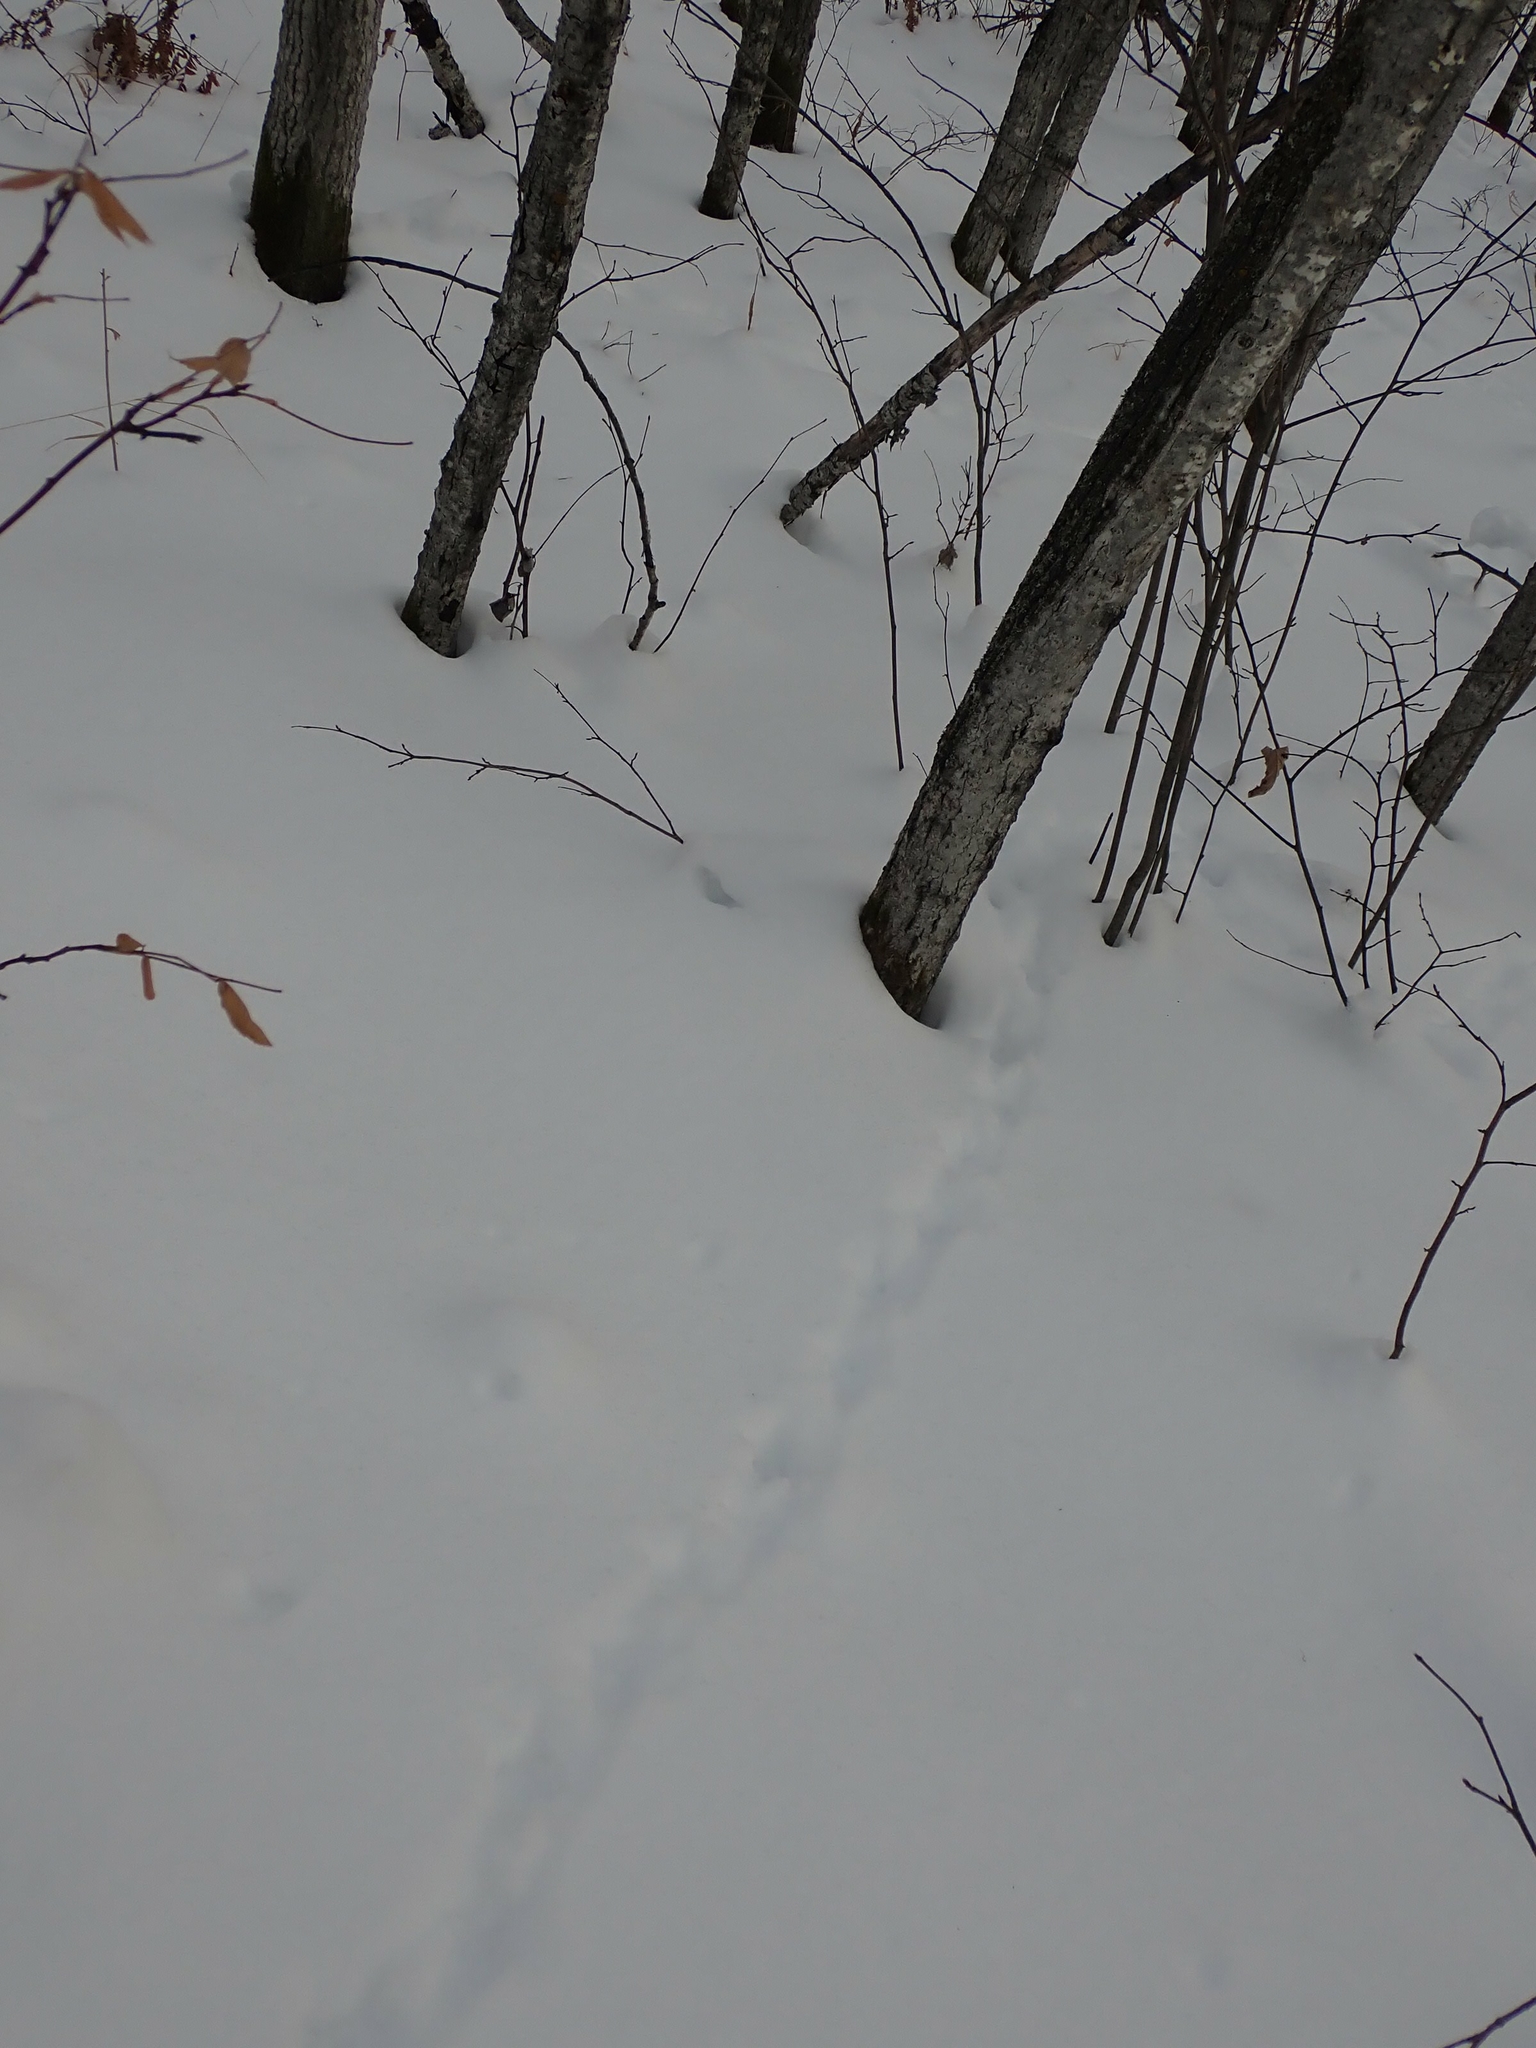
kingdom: Animalia
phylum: Chordata
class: Aves
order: Galliformes
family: Phasianidae
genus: Bonasa
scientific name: Bonasa umbellus
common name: Ruffed grouse
